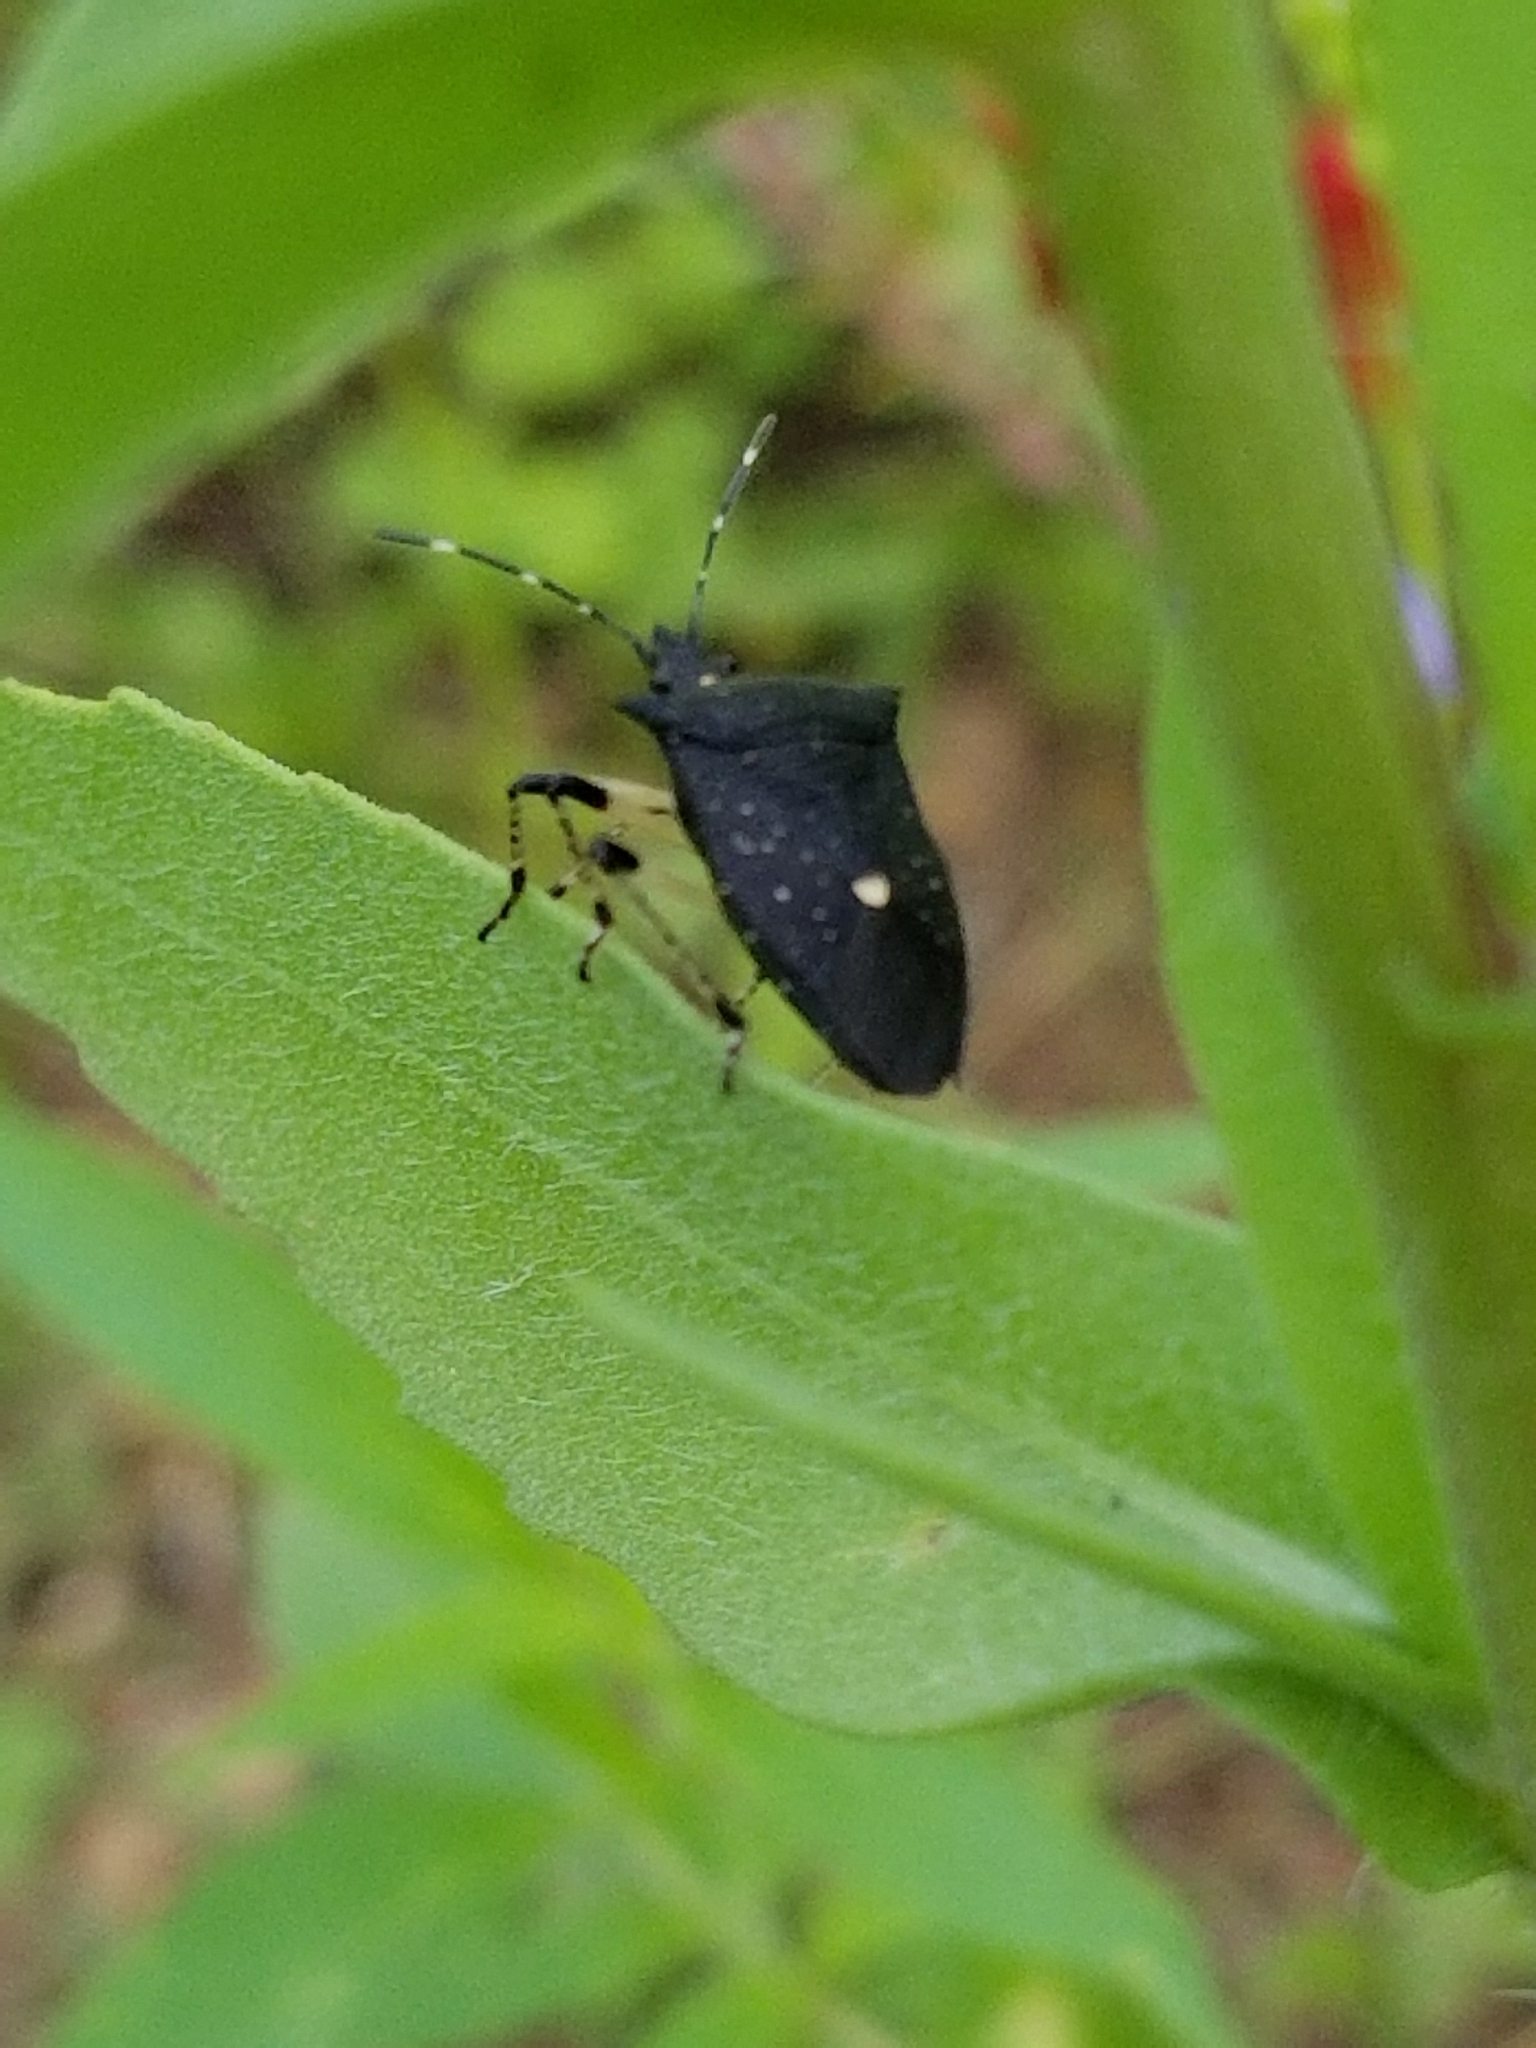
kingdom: Animalia
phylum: Arthropoda
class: Insecta
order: Hemiptera
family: Pentatomidae
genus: Proxys
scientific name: Proxys punctulatus
